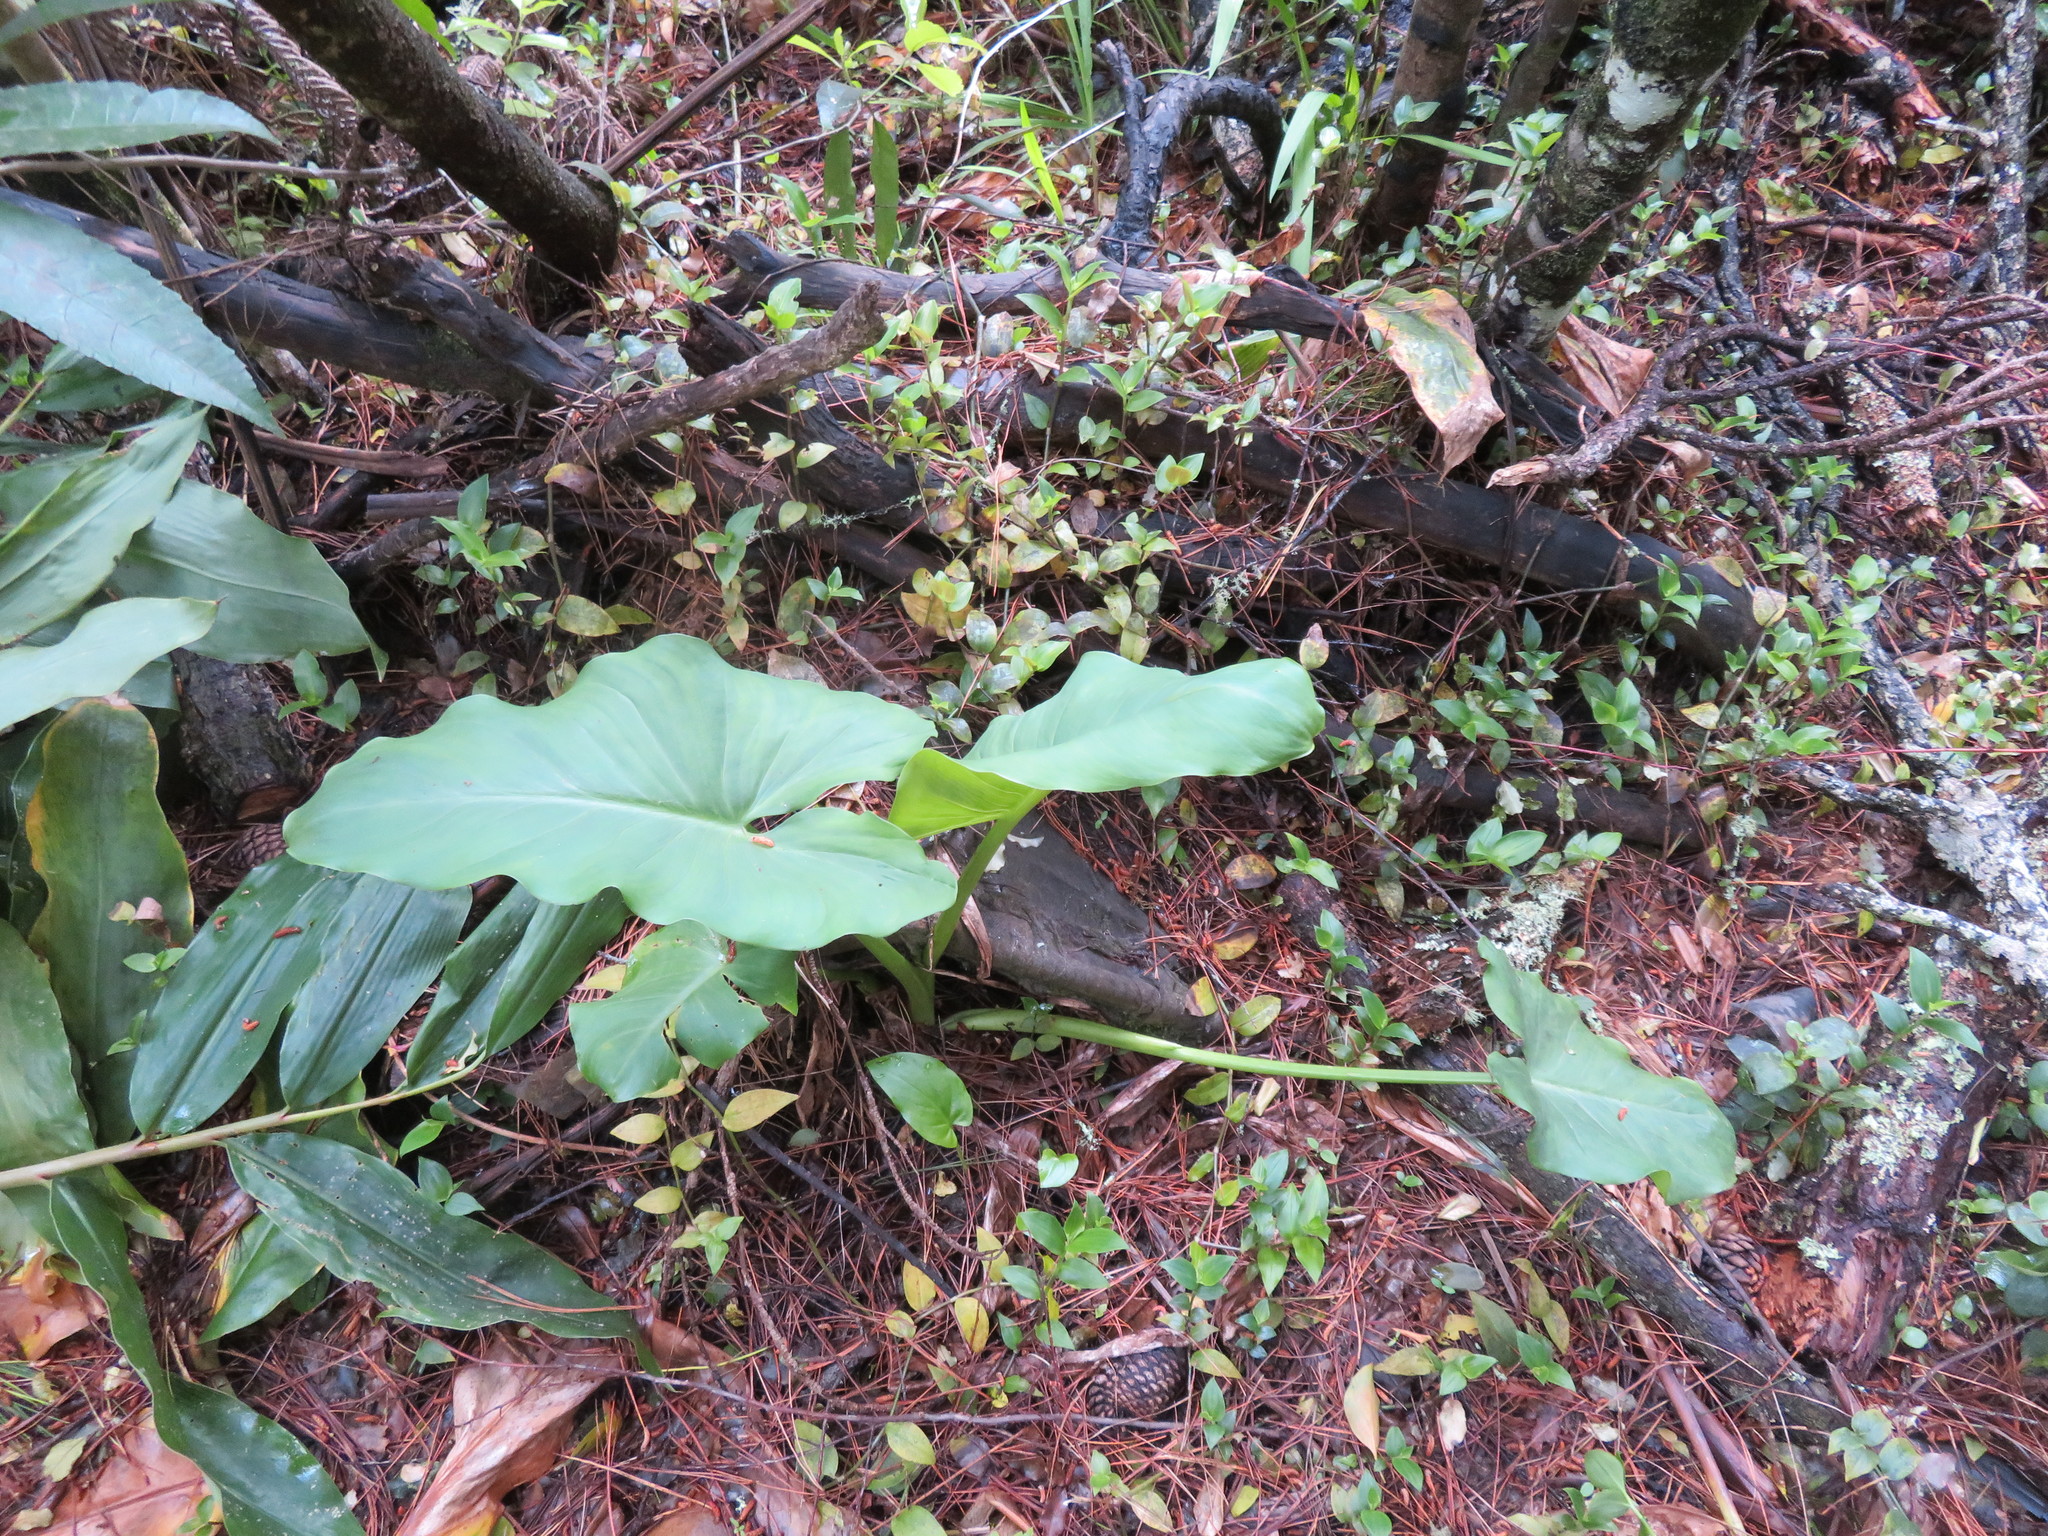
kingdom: Plantae
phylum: Tracheophyta
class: Liliopsida
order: Alismatales
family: Araceae
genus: Zantedeschia
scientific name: Zantedeschia aethiopica
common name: Altar-lily
